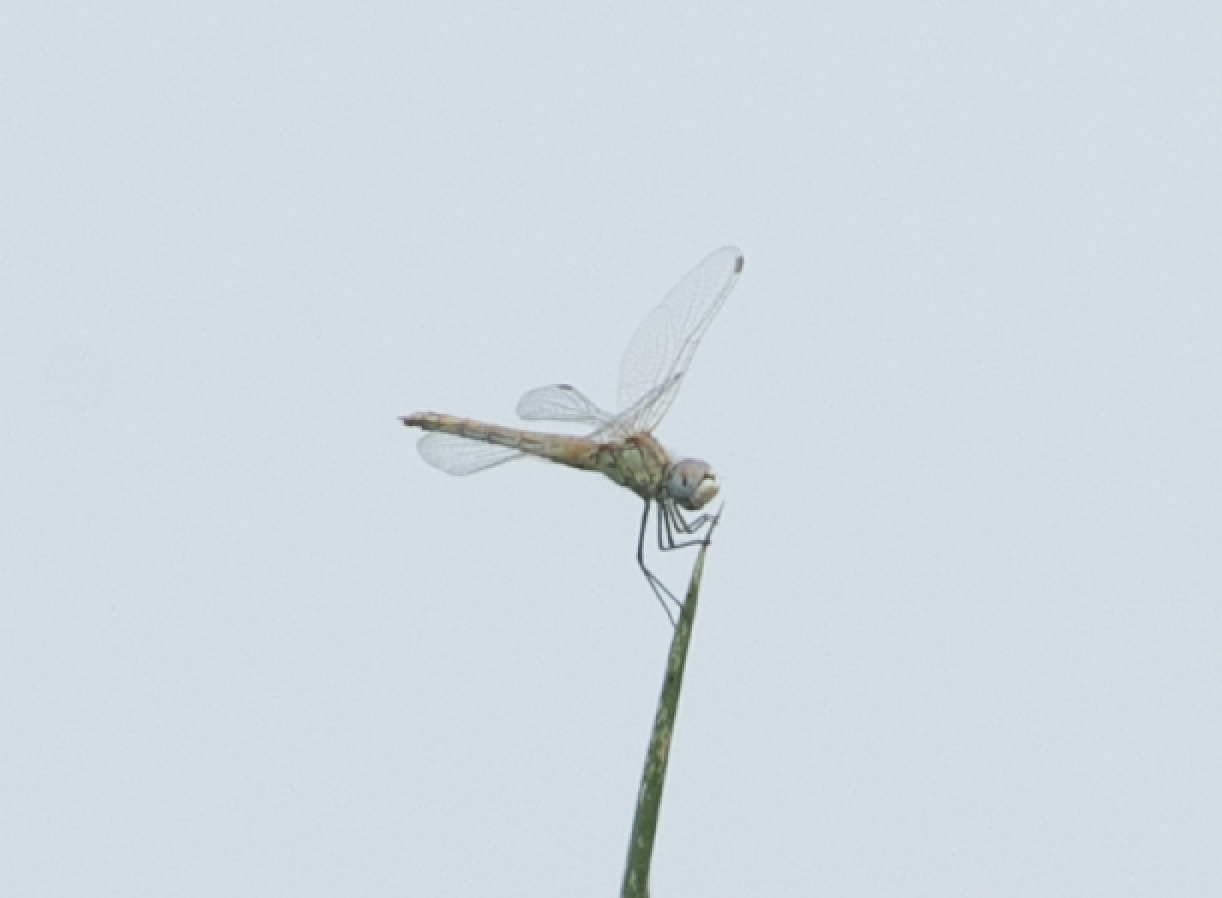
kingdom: Animalia
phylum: Arthropoda
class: Insecta
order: Odonata
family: Libellulidae
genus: Sympetrum
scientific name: Sympetrum fonscolombii
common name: Red-veined darter
